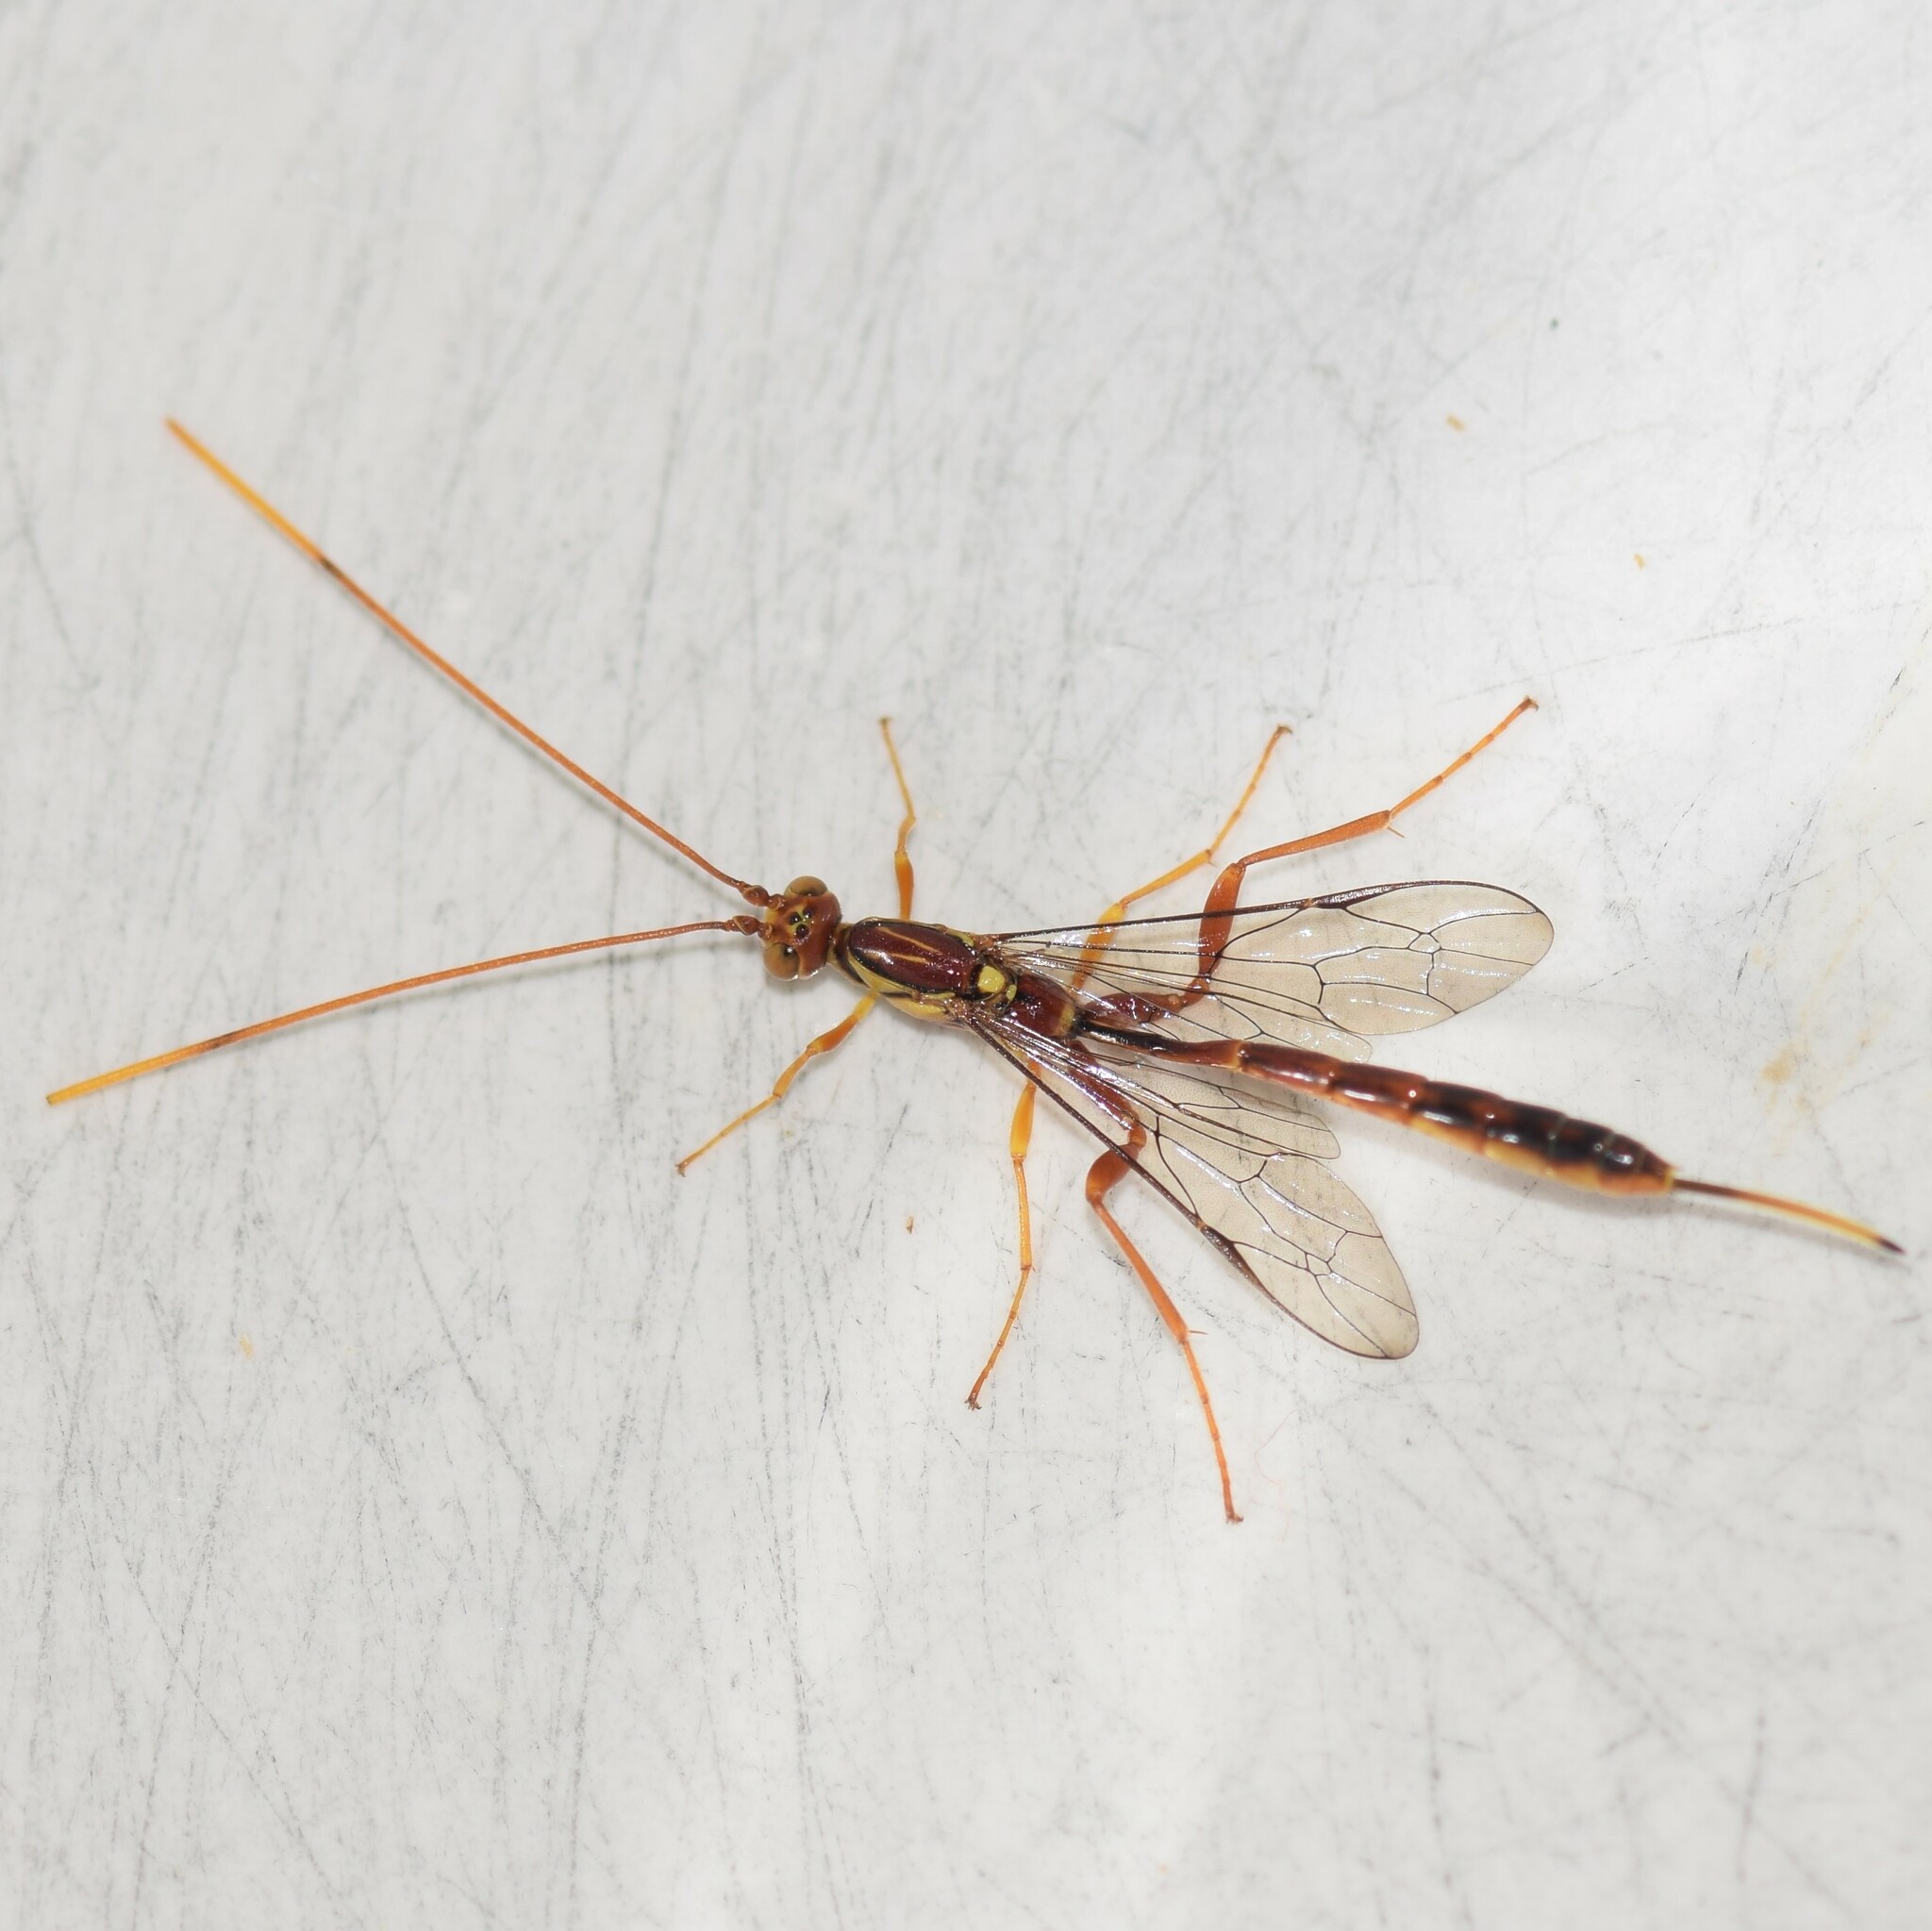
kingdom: Animalia
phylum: Arthropoda
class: Insecta
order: Hymenoptera
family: Ichneumonidae
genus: Grotea
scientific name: Grotea anguina
